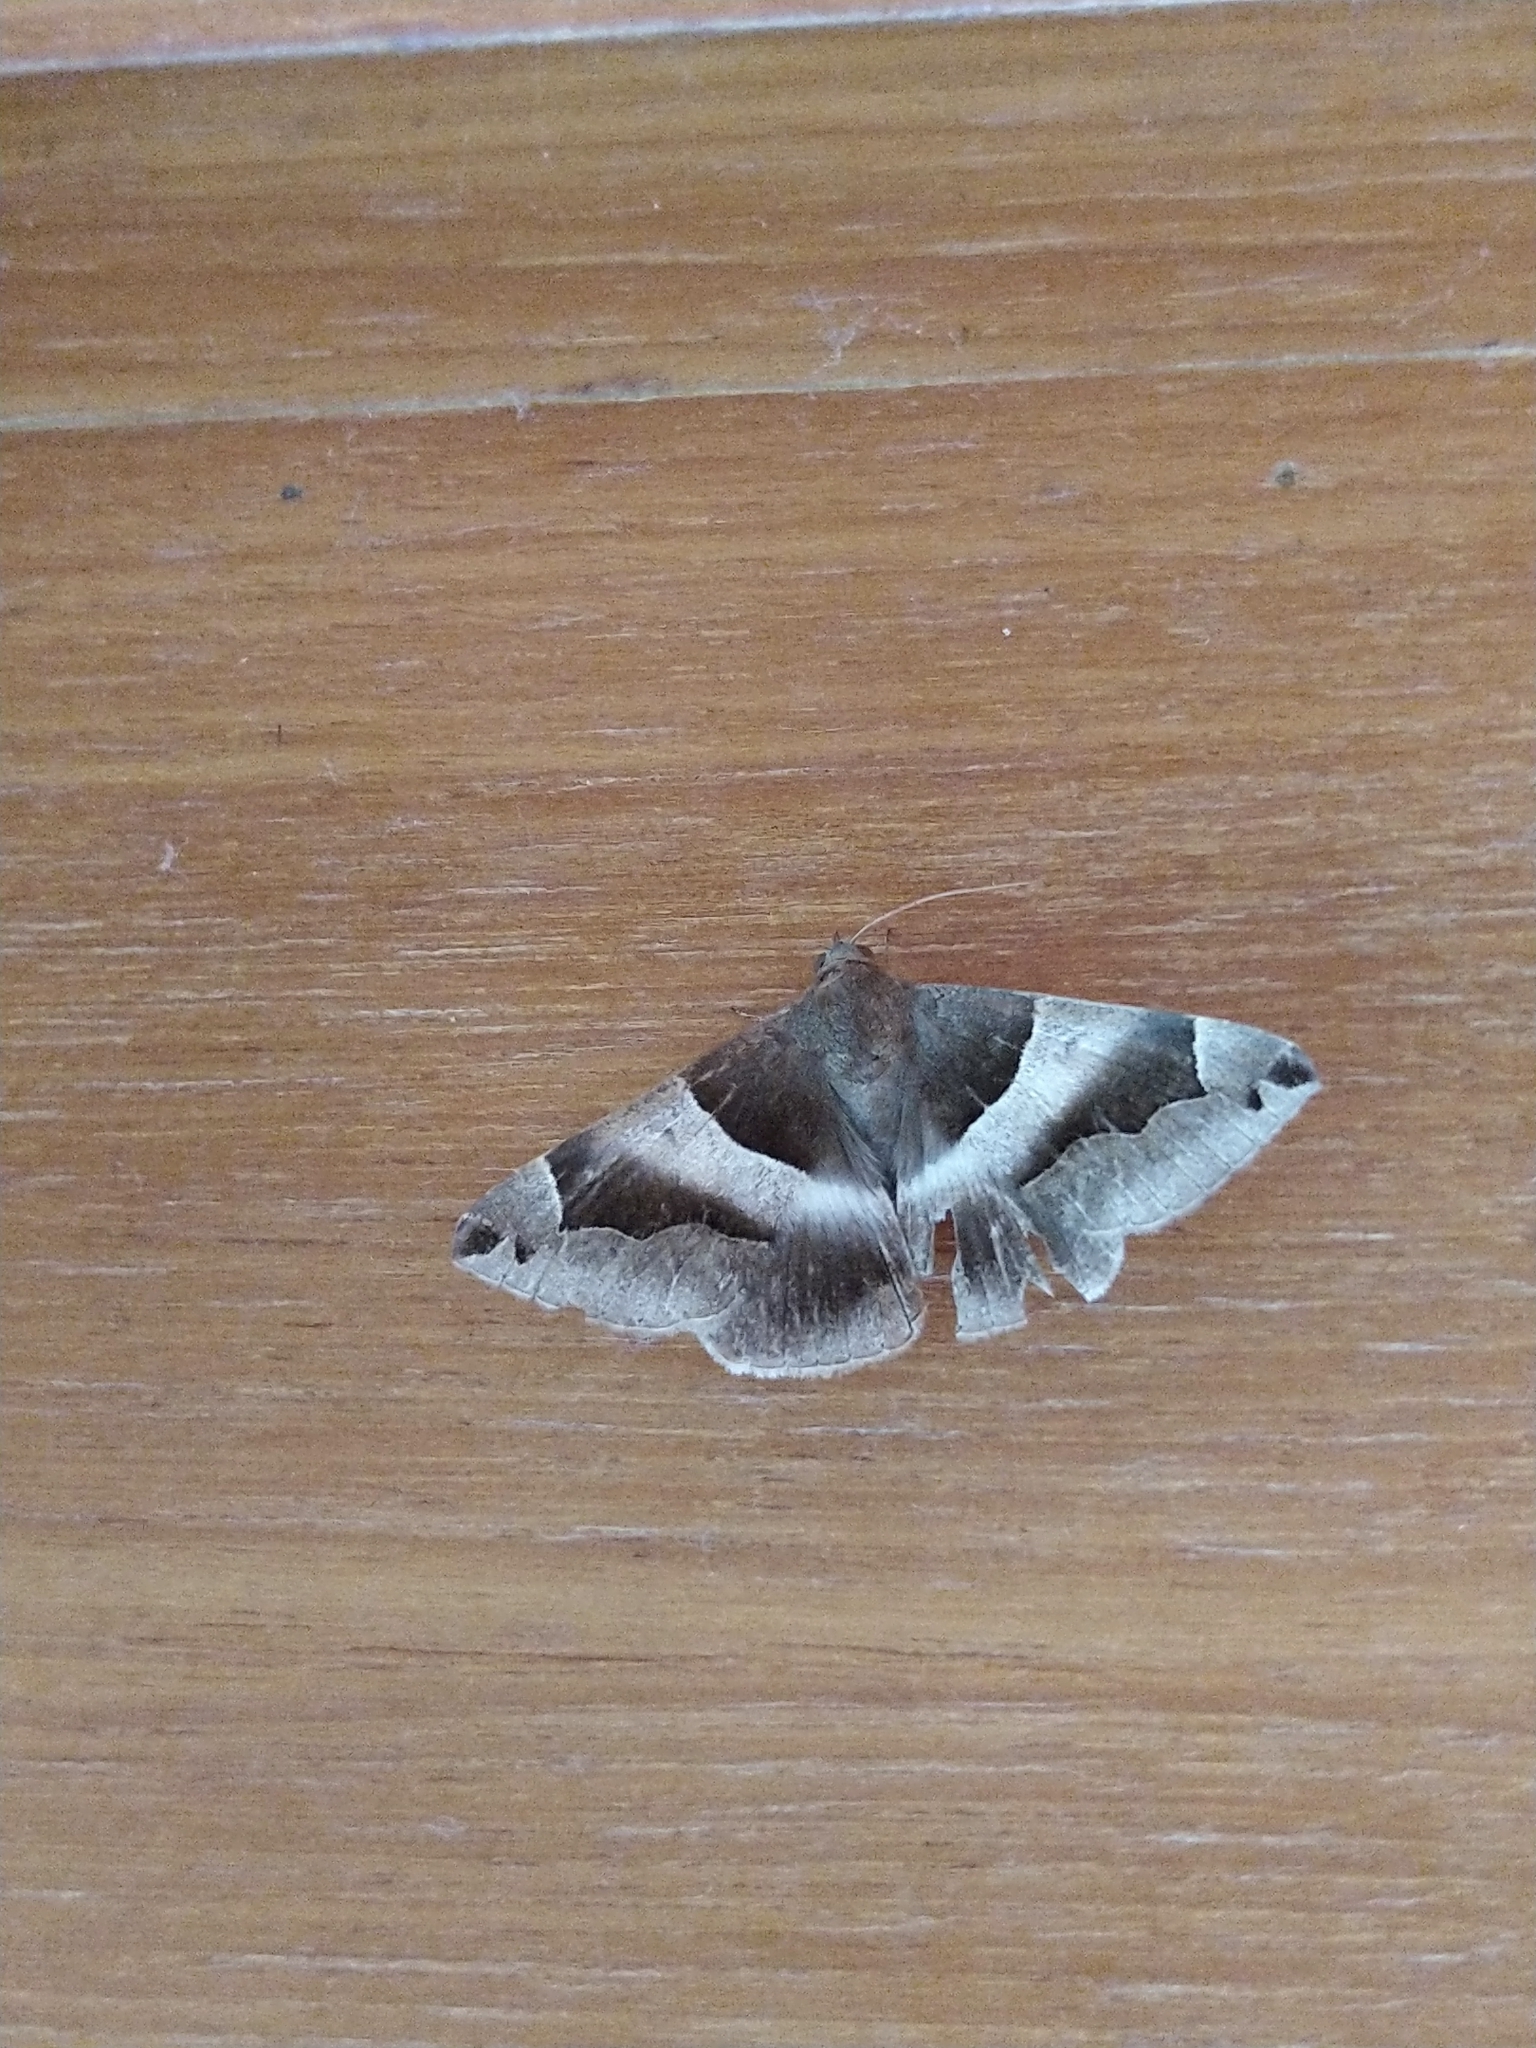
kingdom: Animalia
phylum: Arthropoda
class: Insecta
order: Lepidoptera
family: Erebidae
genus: Dysgonia
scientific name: Dysgonia stuposa
